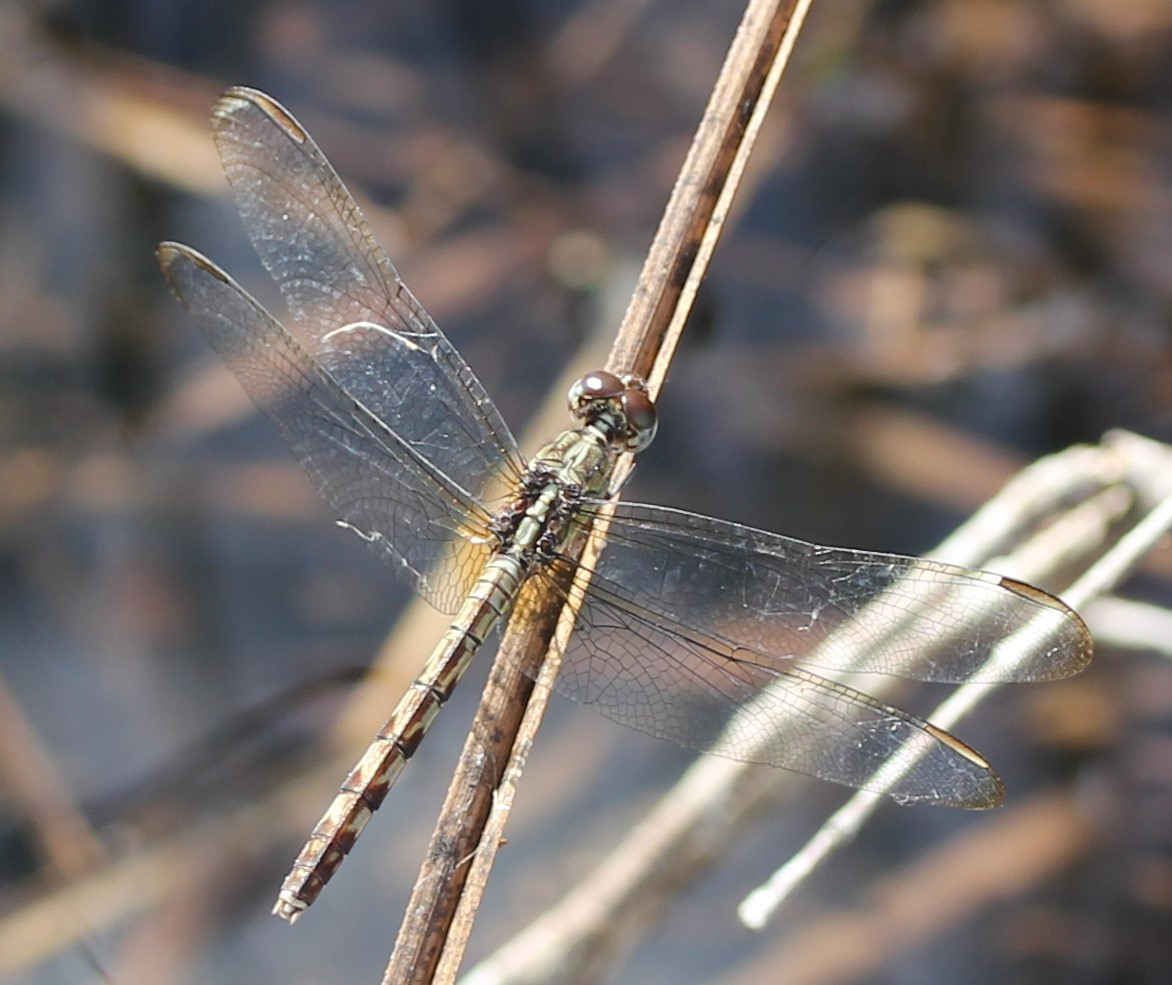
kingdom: Animalia
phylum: Arthropoda
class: Insecta
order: Odonata
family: Libellulidae
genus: Erythrodiplax
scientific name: Erythrodiplax umbrata
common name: Band-winged dragonlet
